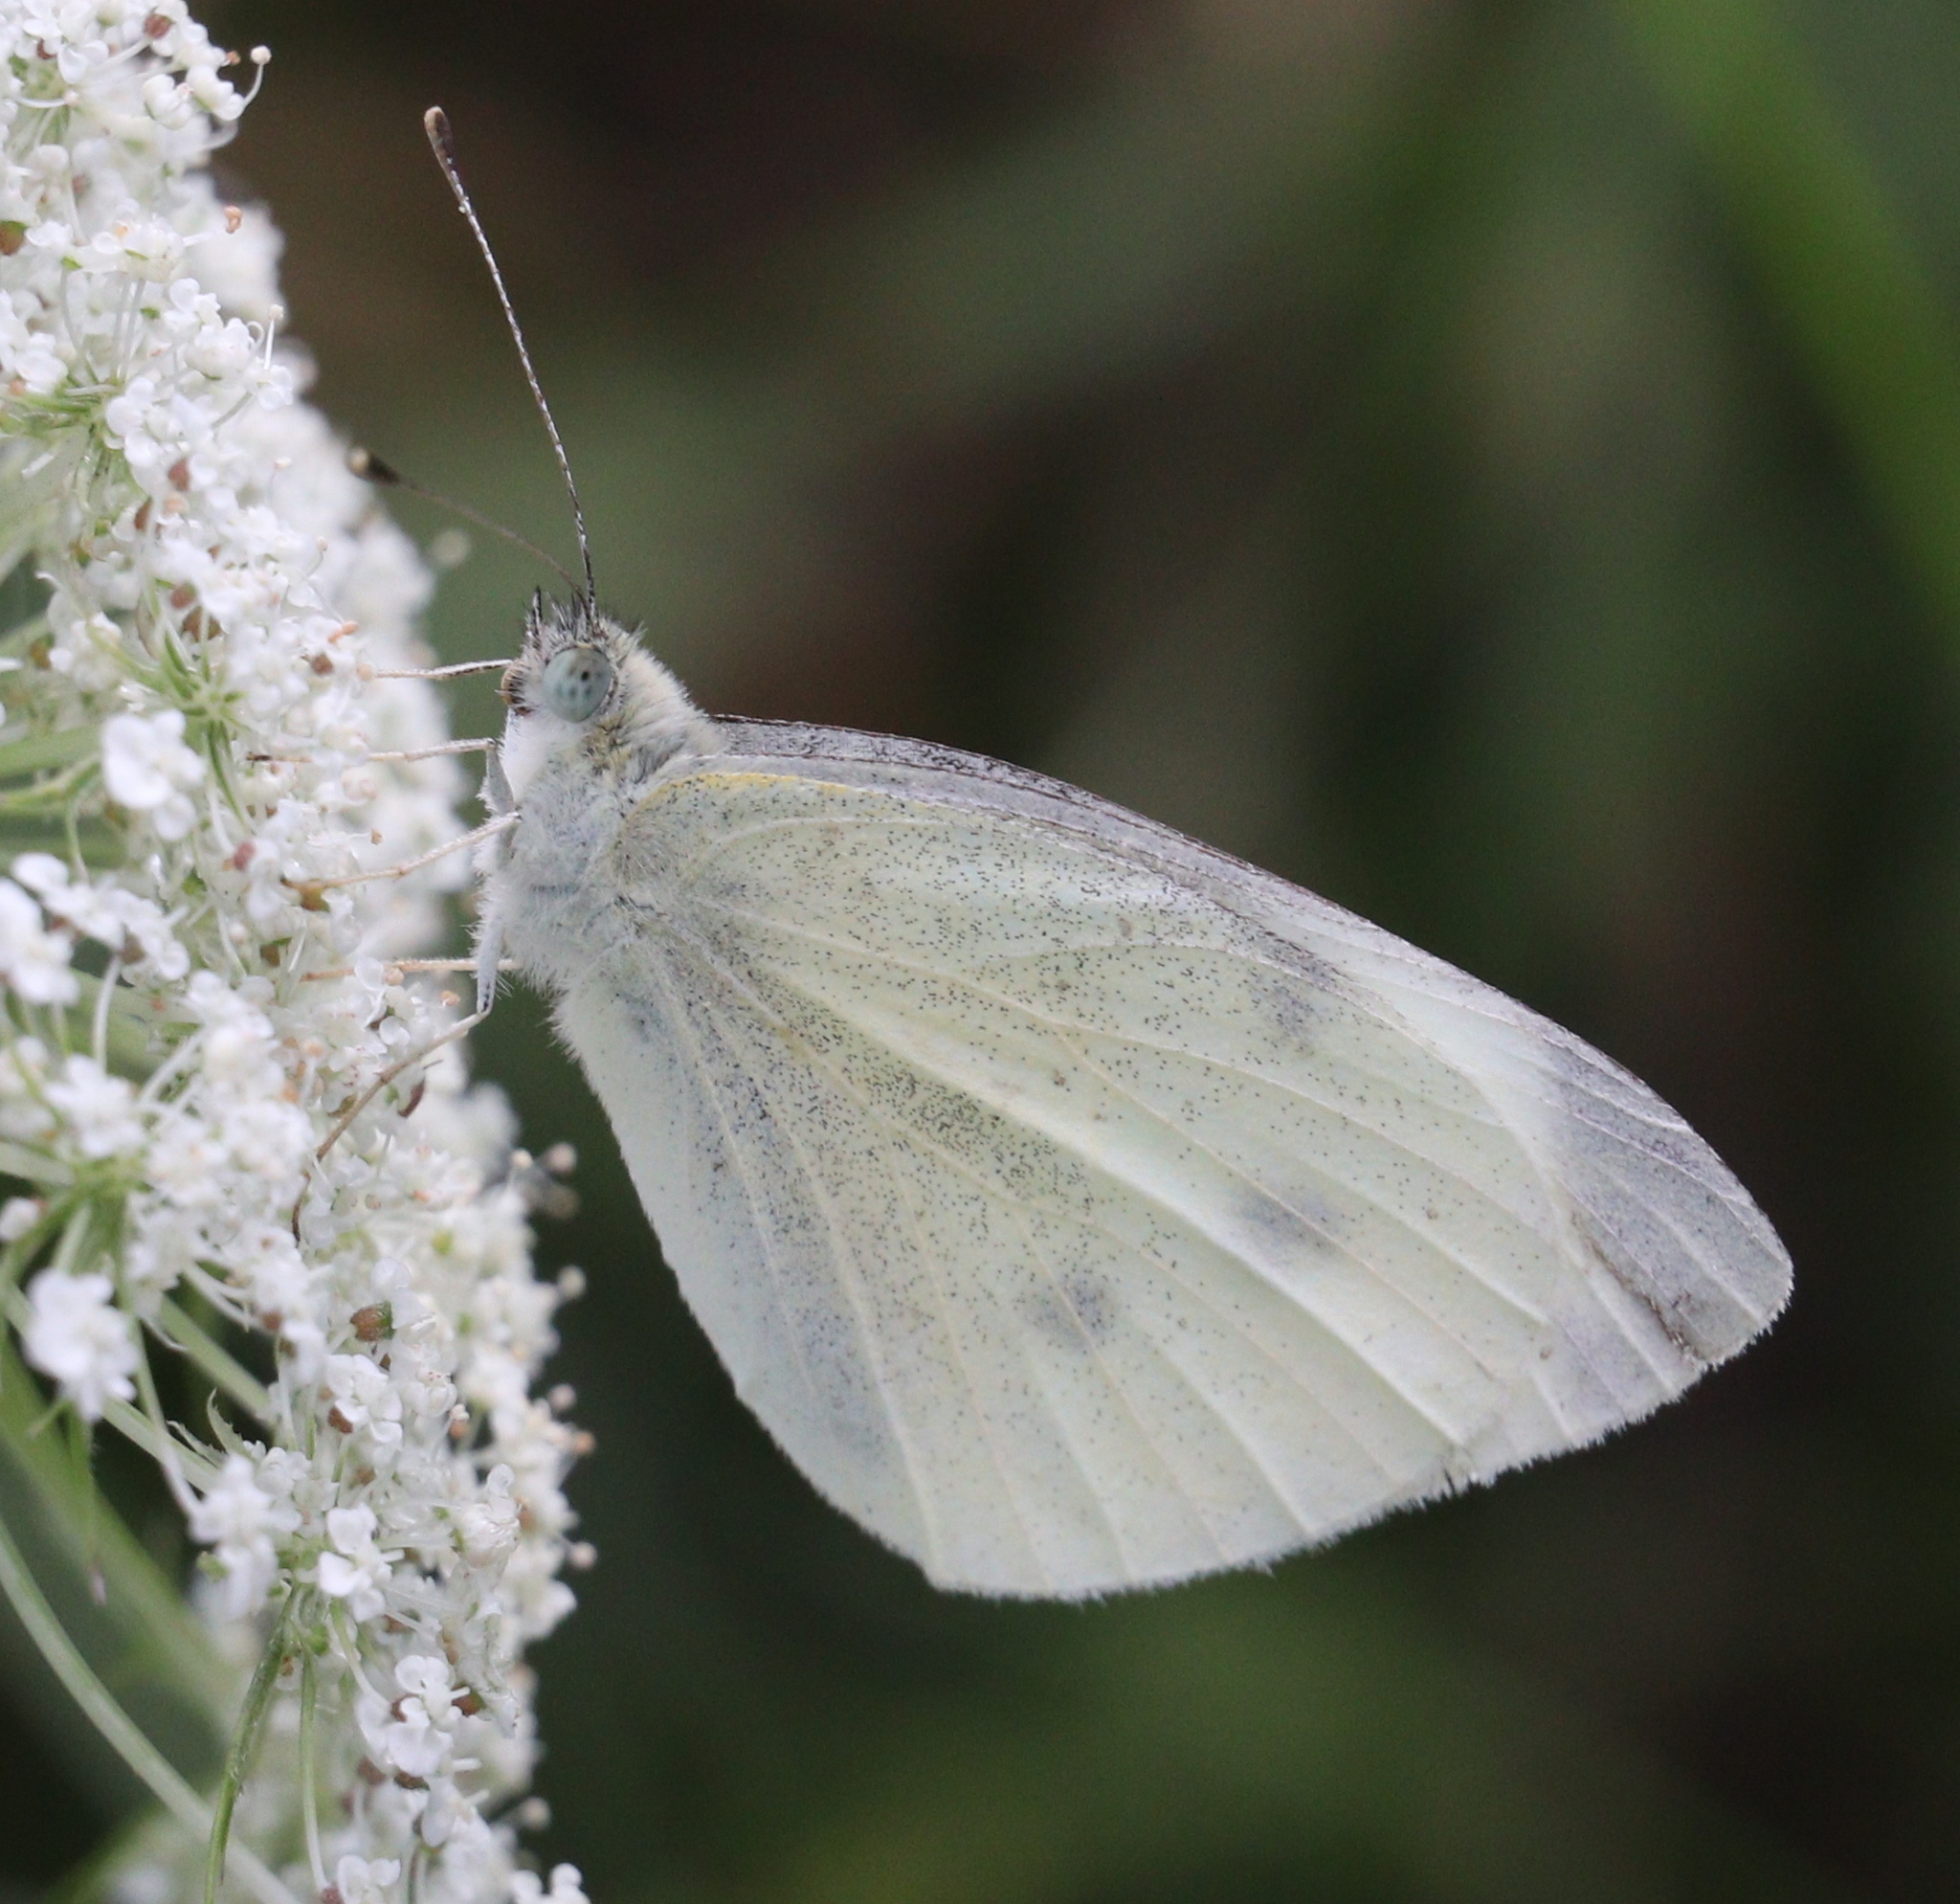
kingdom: Animalia
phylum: Arthropoda
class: Insecta
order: Lepidoptera
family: Pieridae
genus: Pieris
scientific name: Pieris rapae
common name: Small white
